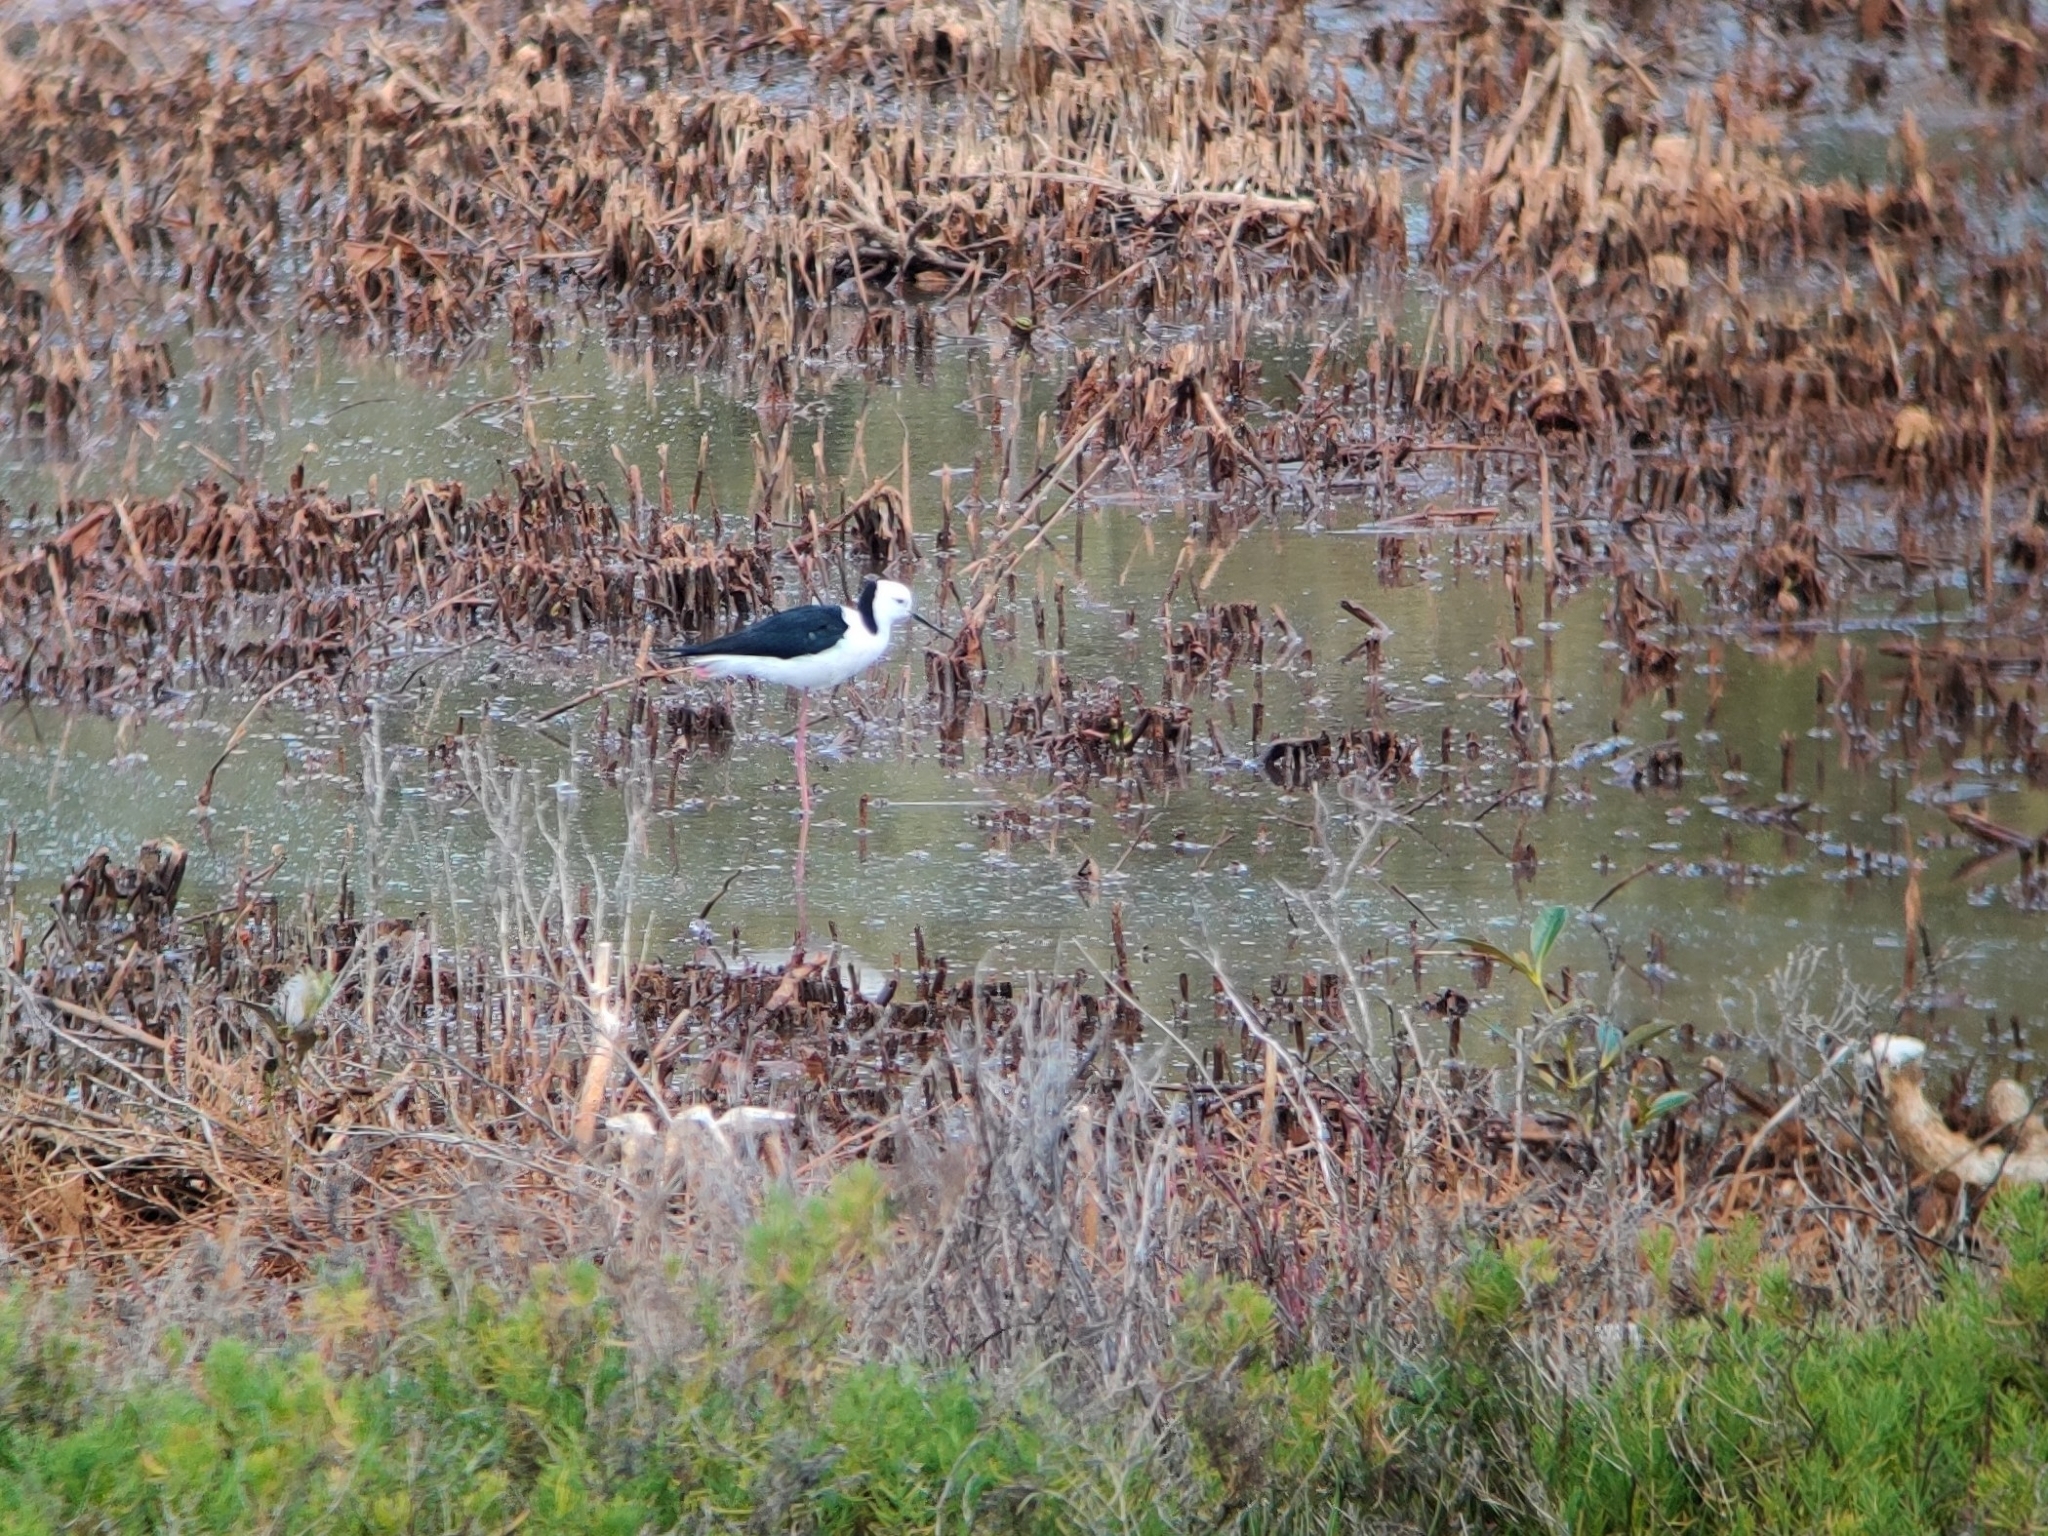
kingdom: Animalia
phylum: Chordata
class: Aves
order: Charadriiformes
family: Recurvirostridae
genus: Himantopus
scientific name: Himantopus leucocephalus
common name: White-headed stilt
